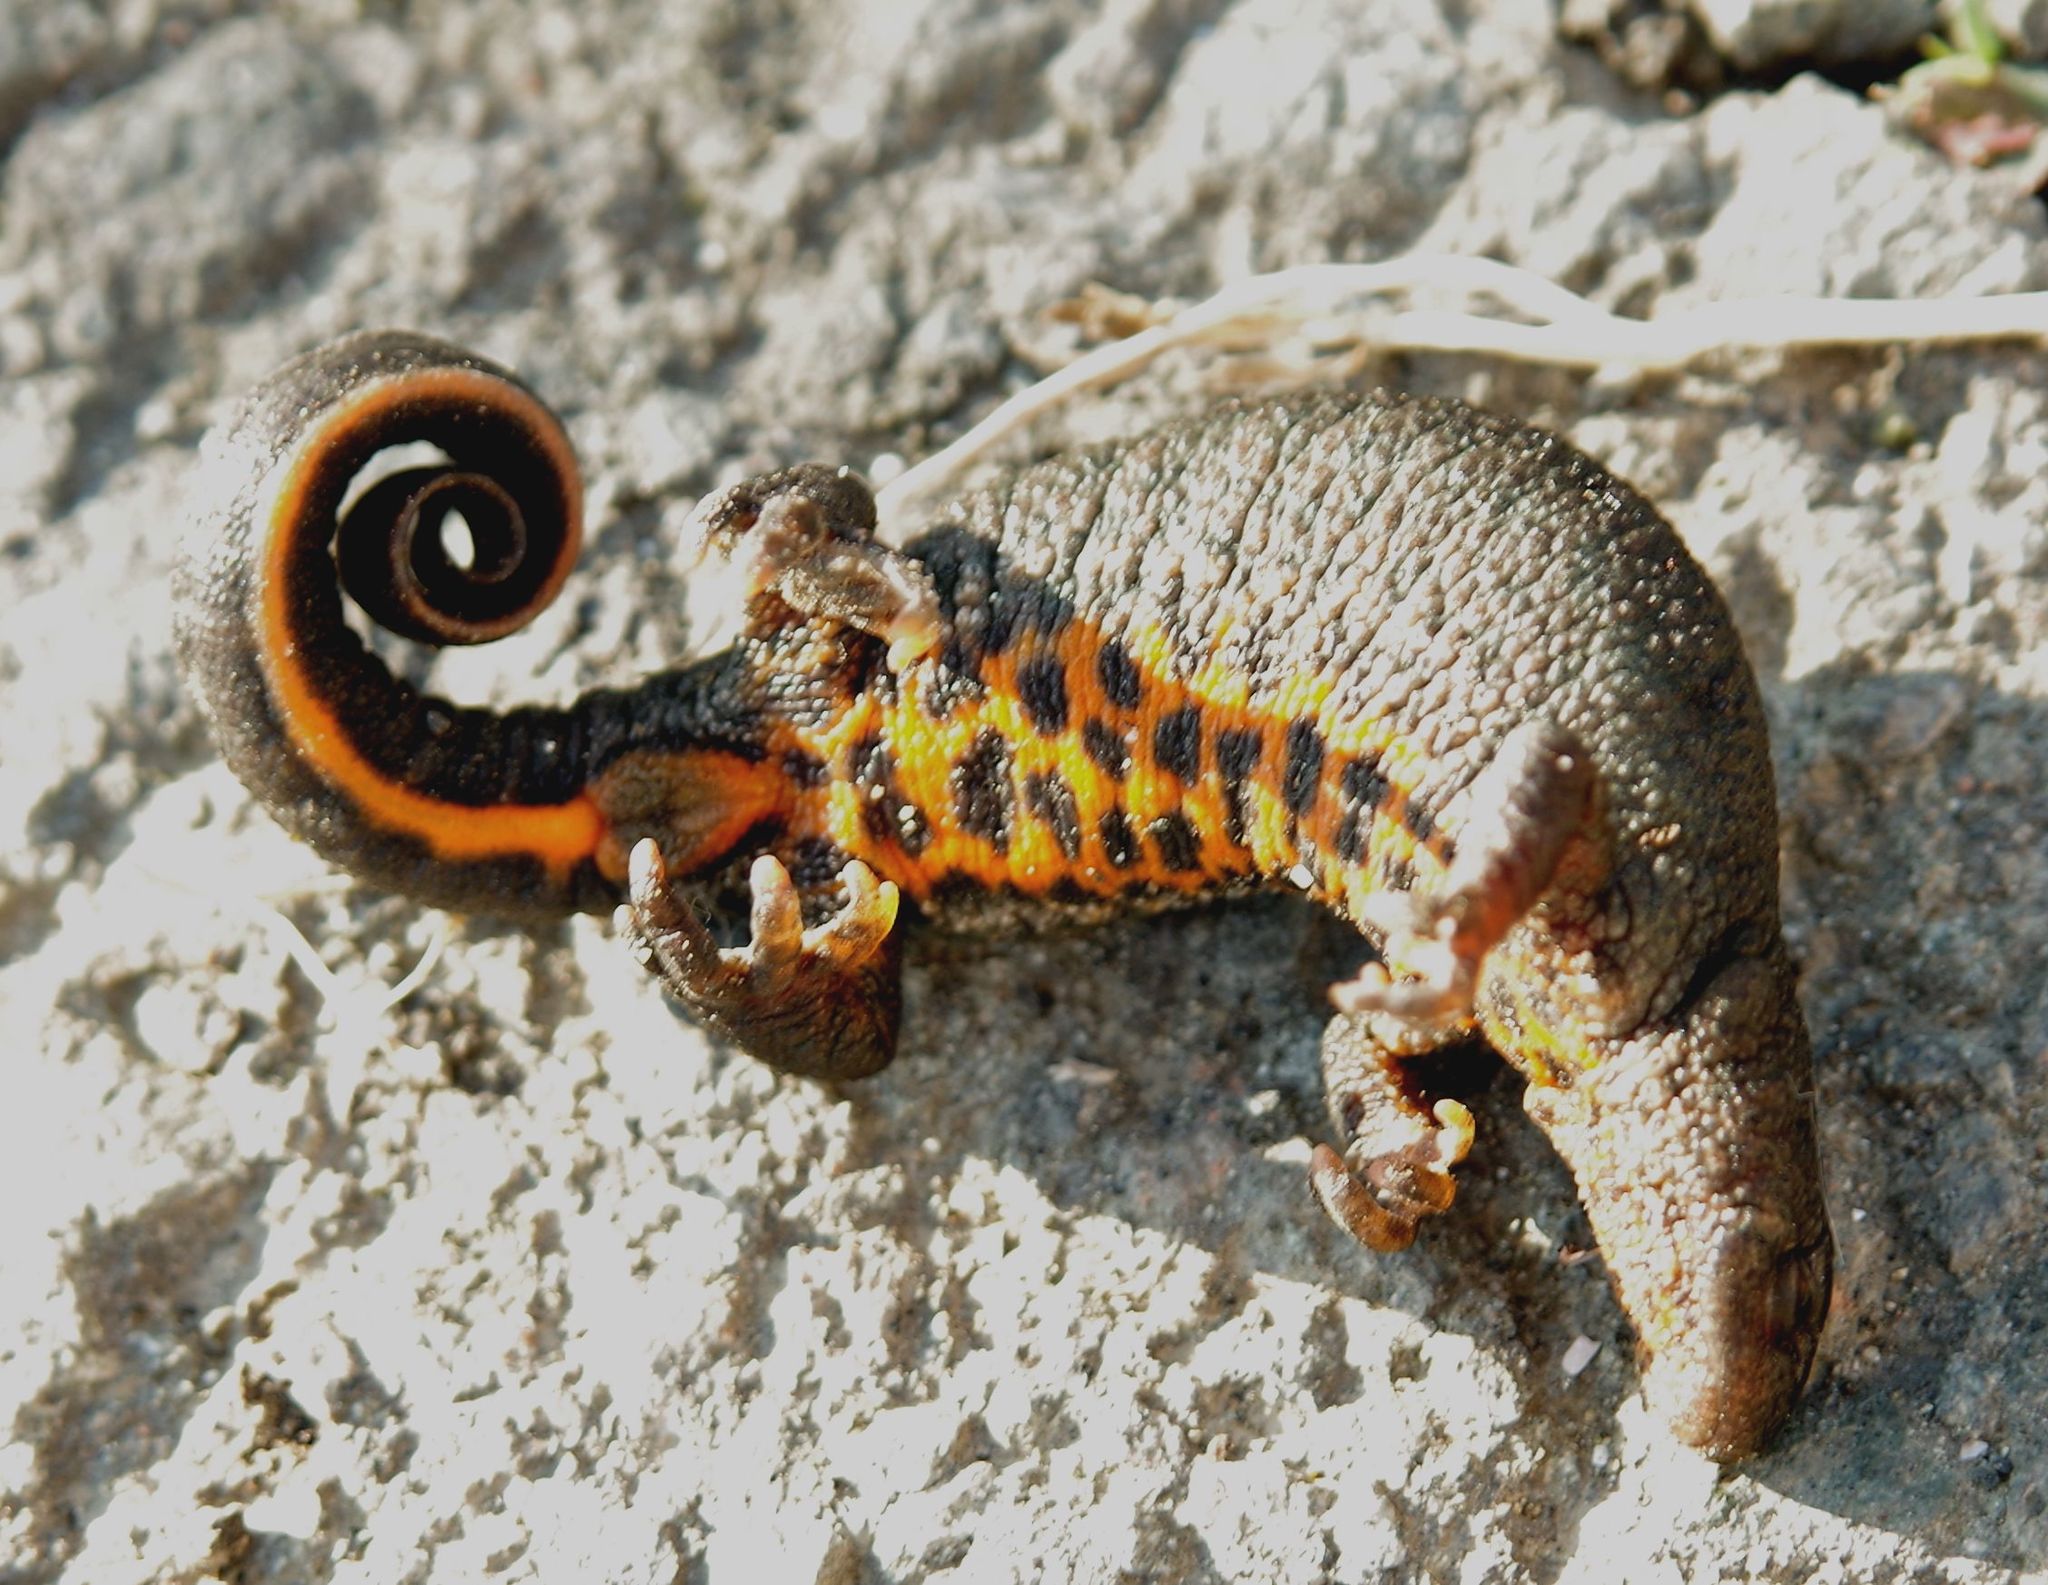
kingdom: Animalia
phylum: Chordata
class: Amphibia
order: Caudata
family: Salamandridae
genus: Triturus
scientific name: Triturus ivanbureschi
